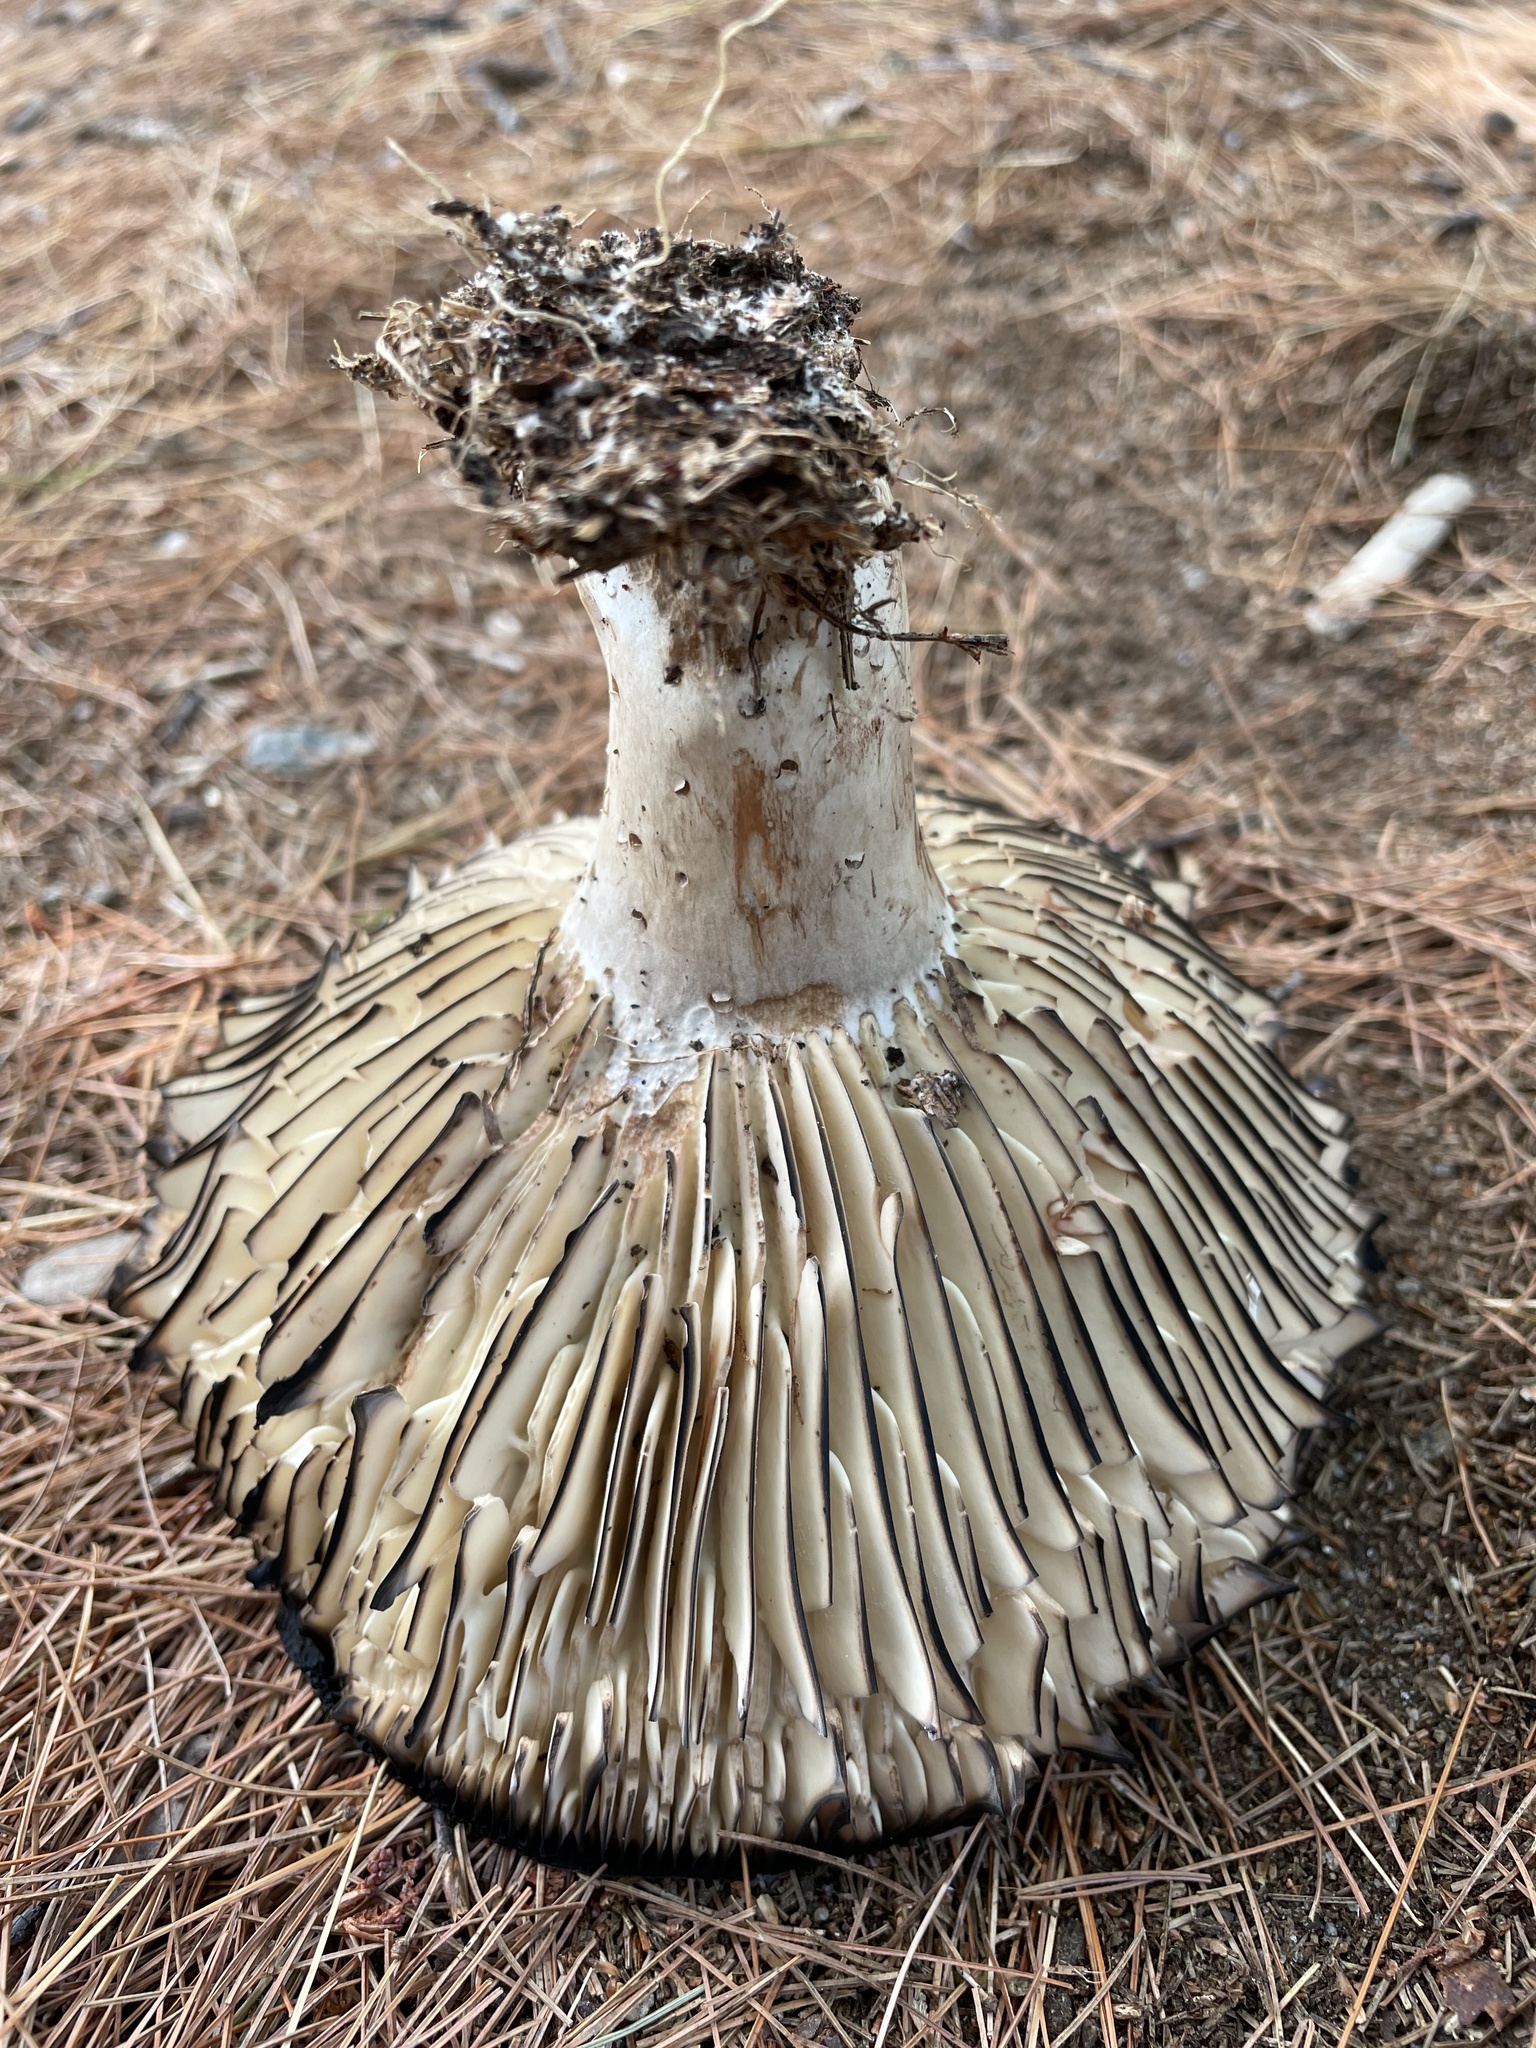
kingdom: Fungi
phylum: Basidiomycota
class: Agaricomycetes
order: Russulales
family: Russulaceae
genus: Russula
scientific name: Russula dissimulans
